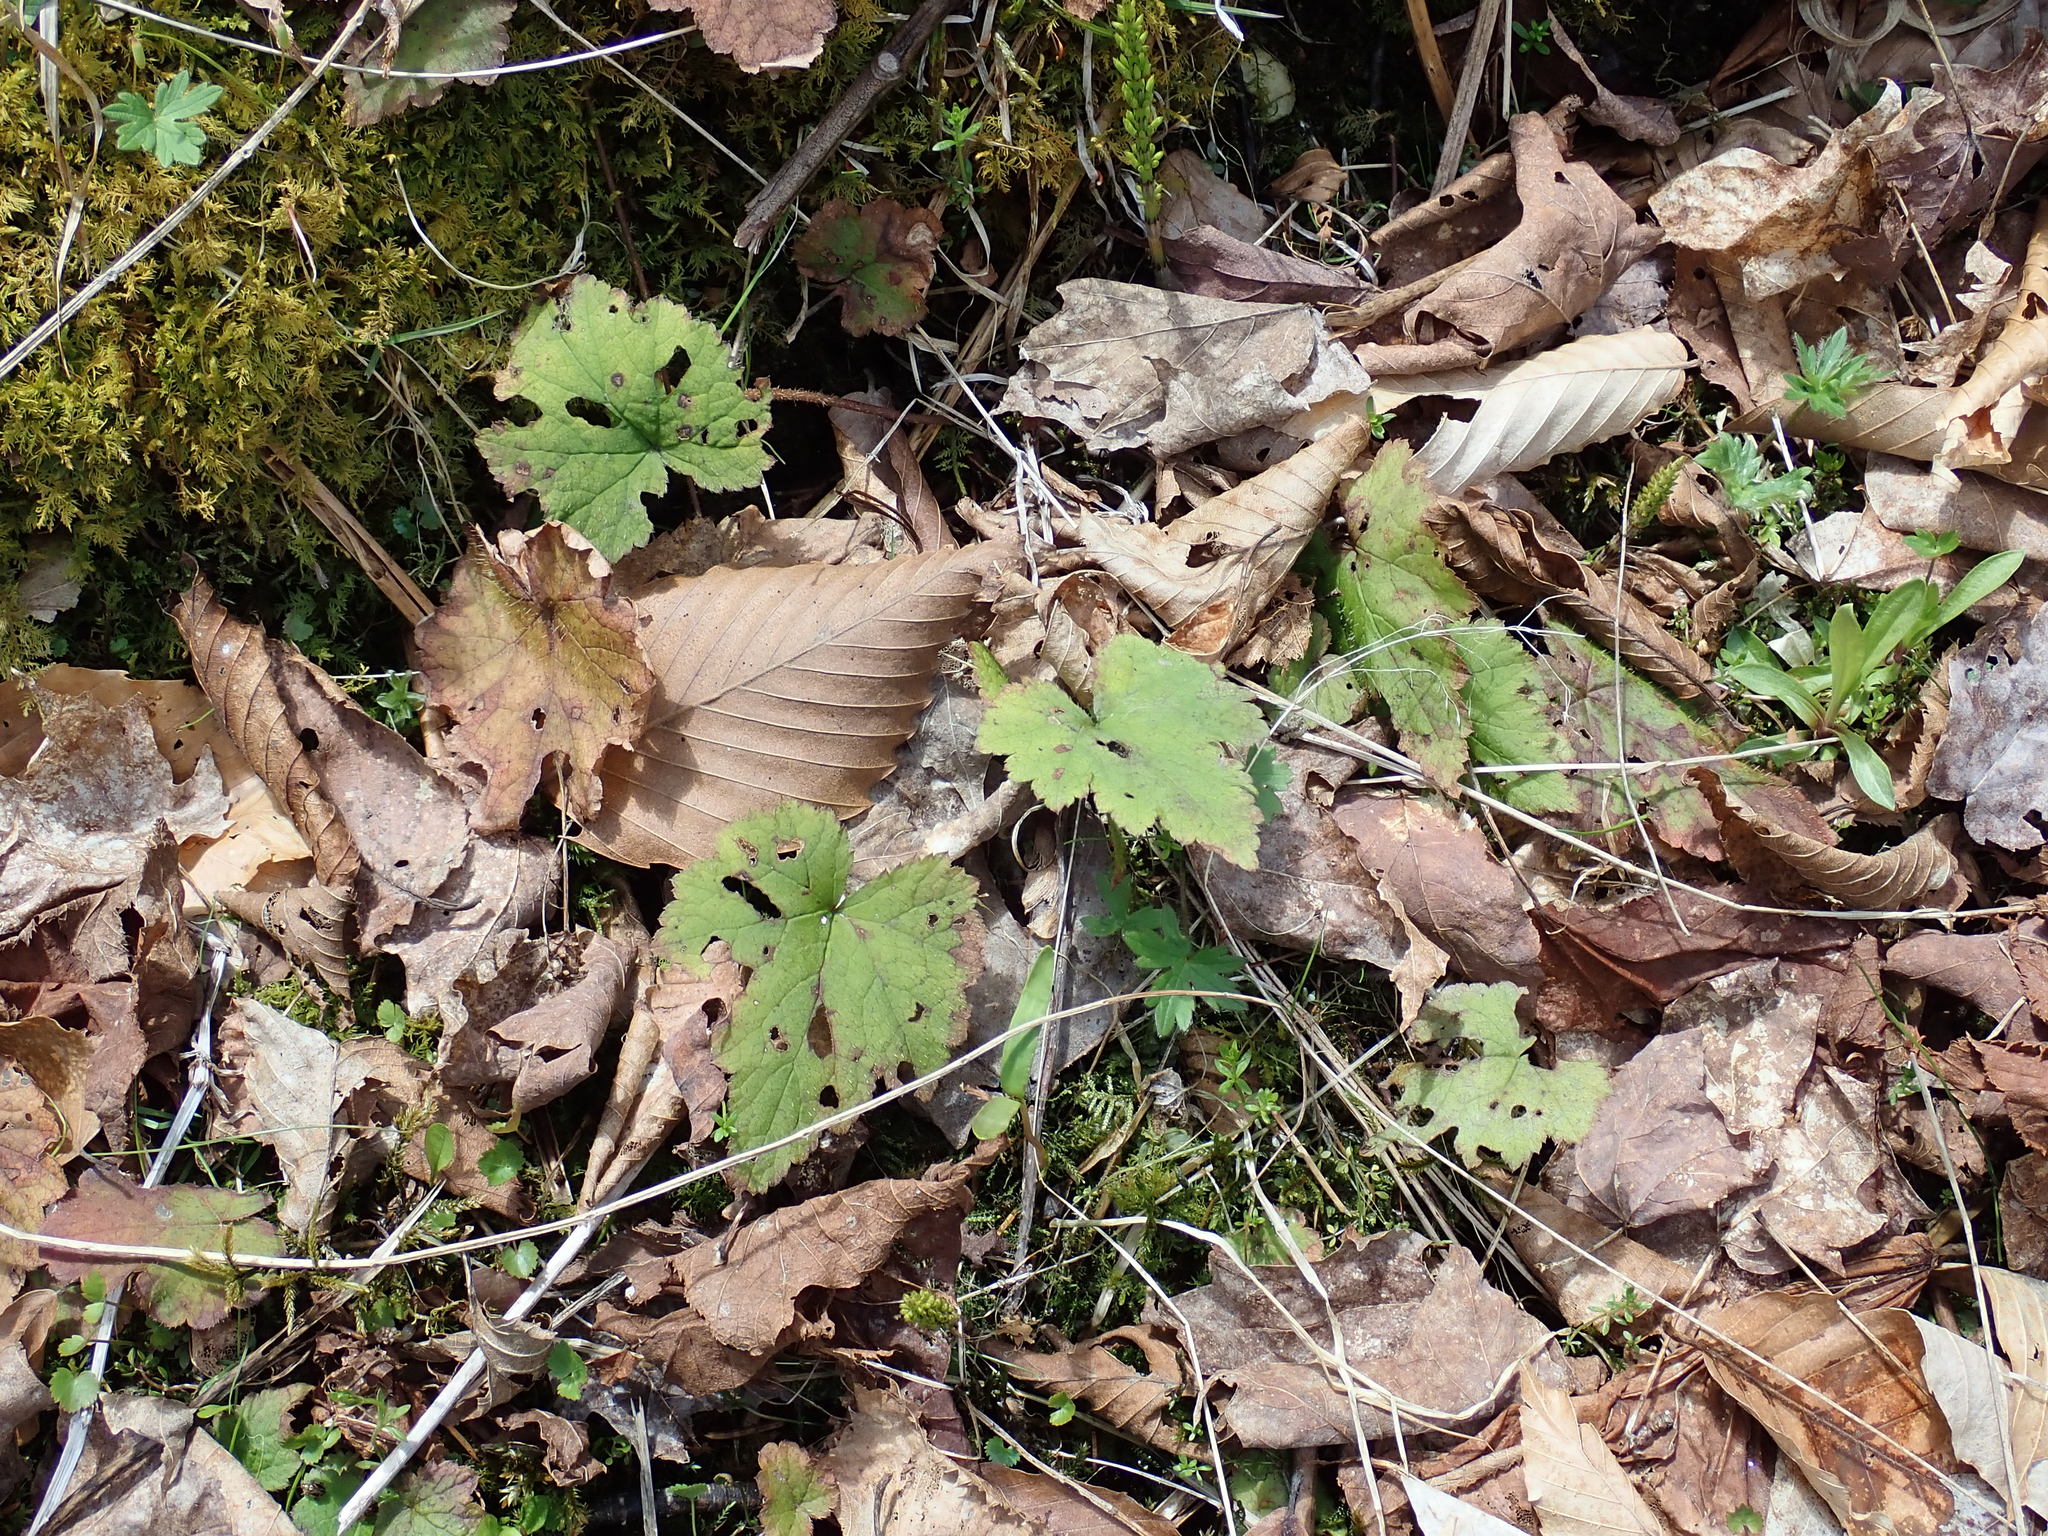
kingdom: Plantae
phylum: Tracheophyta
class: Magnoliopsida
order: Saxifragales
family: Saxifragaceae
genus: Tiarella
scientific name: Tiarella stolonifera
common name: Stoloniferous foamflower
